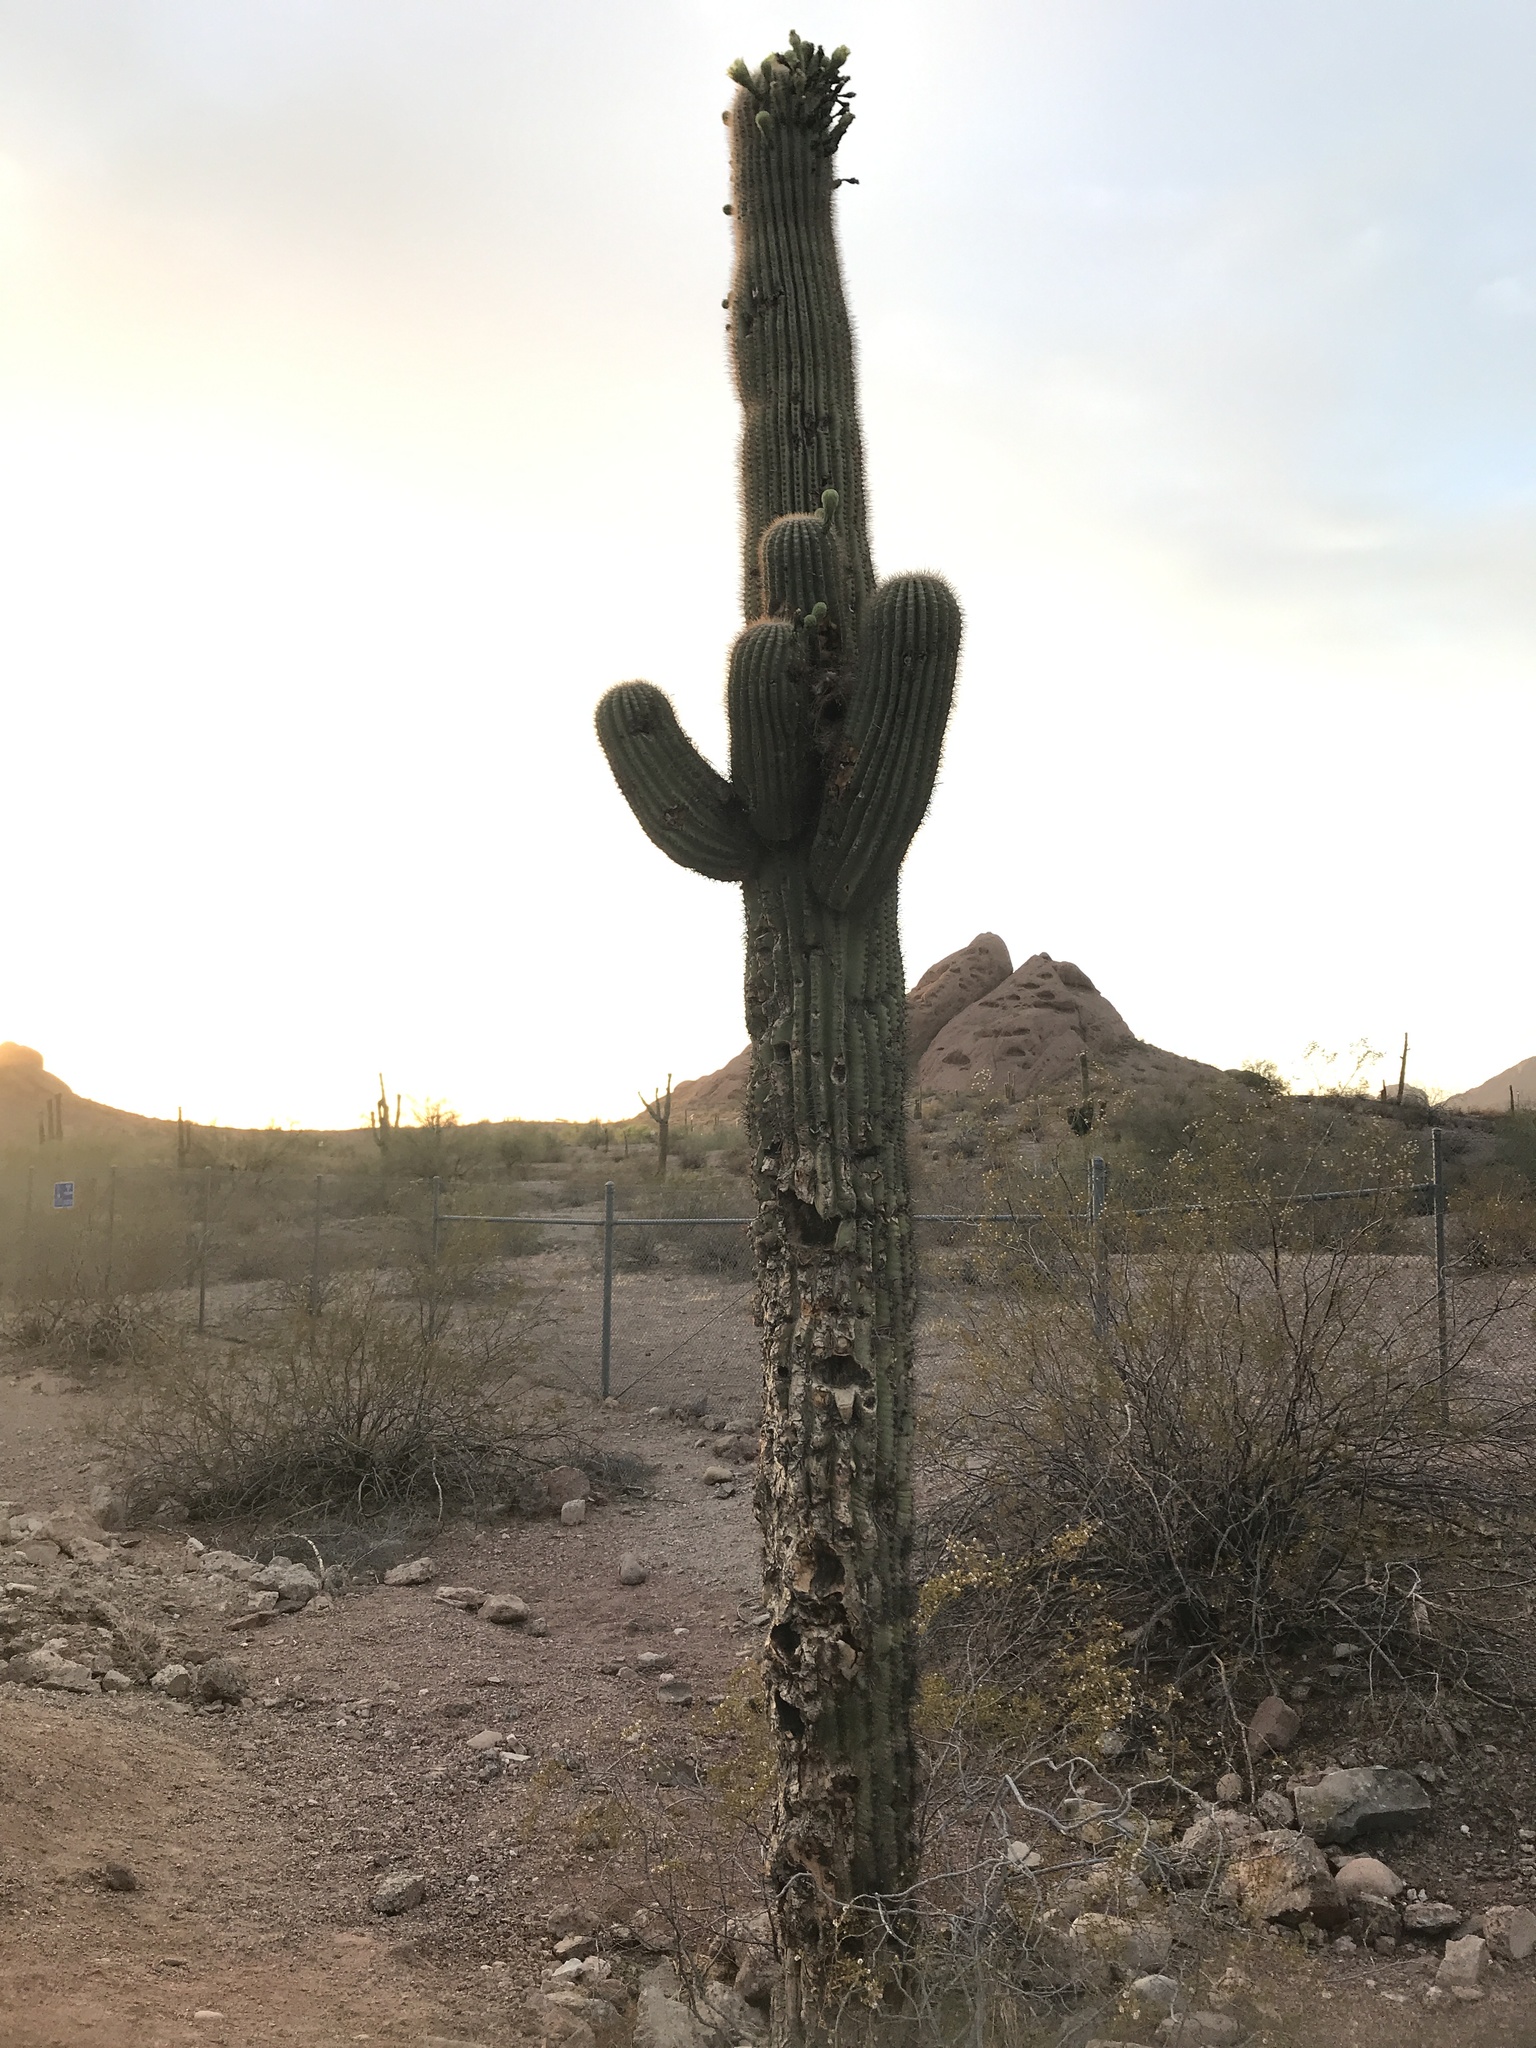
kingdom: Plantae
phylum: Tracheophyta
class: Magnoliopsida
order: Caryophyllales
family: Cactaceae
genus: Carnegiea
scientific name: Carnegiea gigantea
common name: Saguaro
